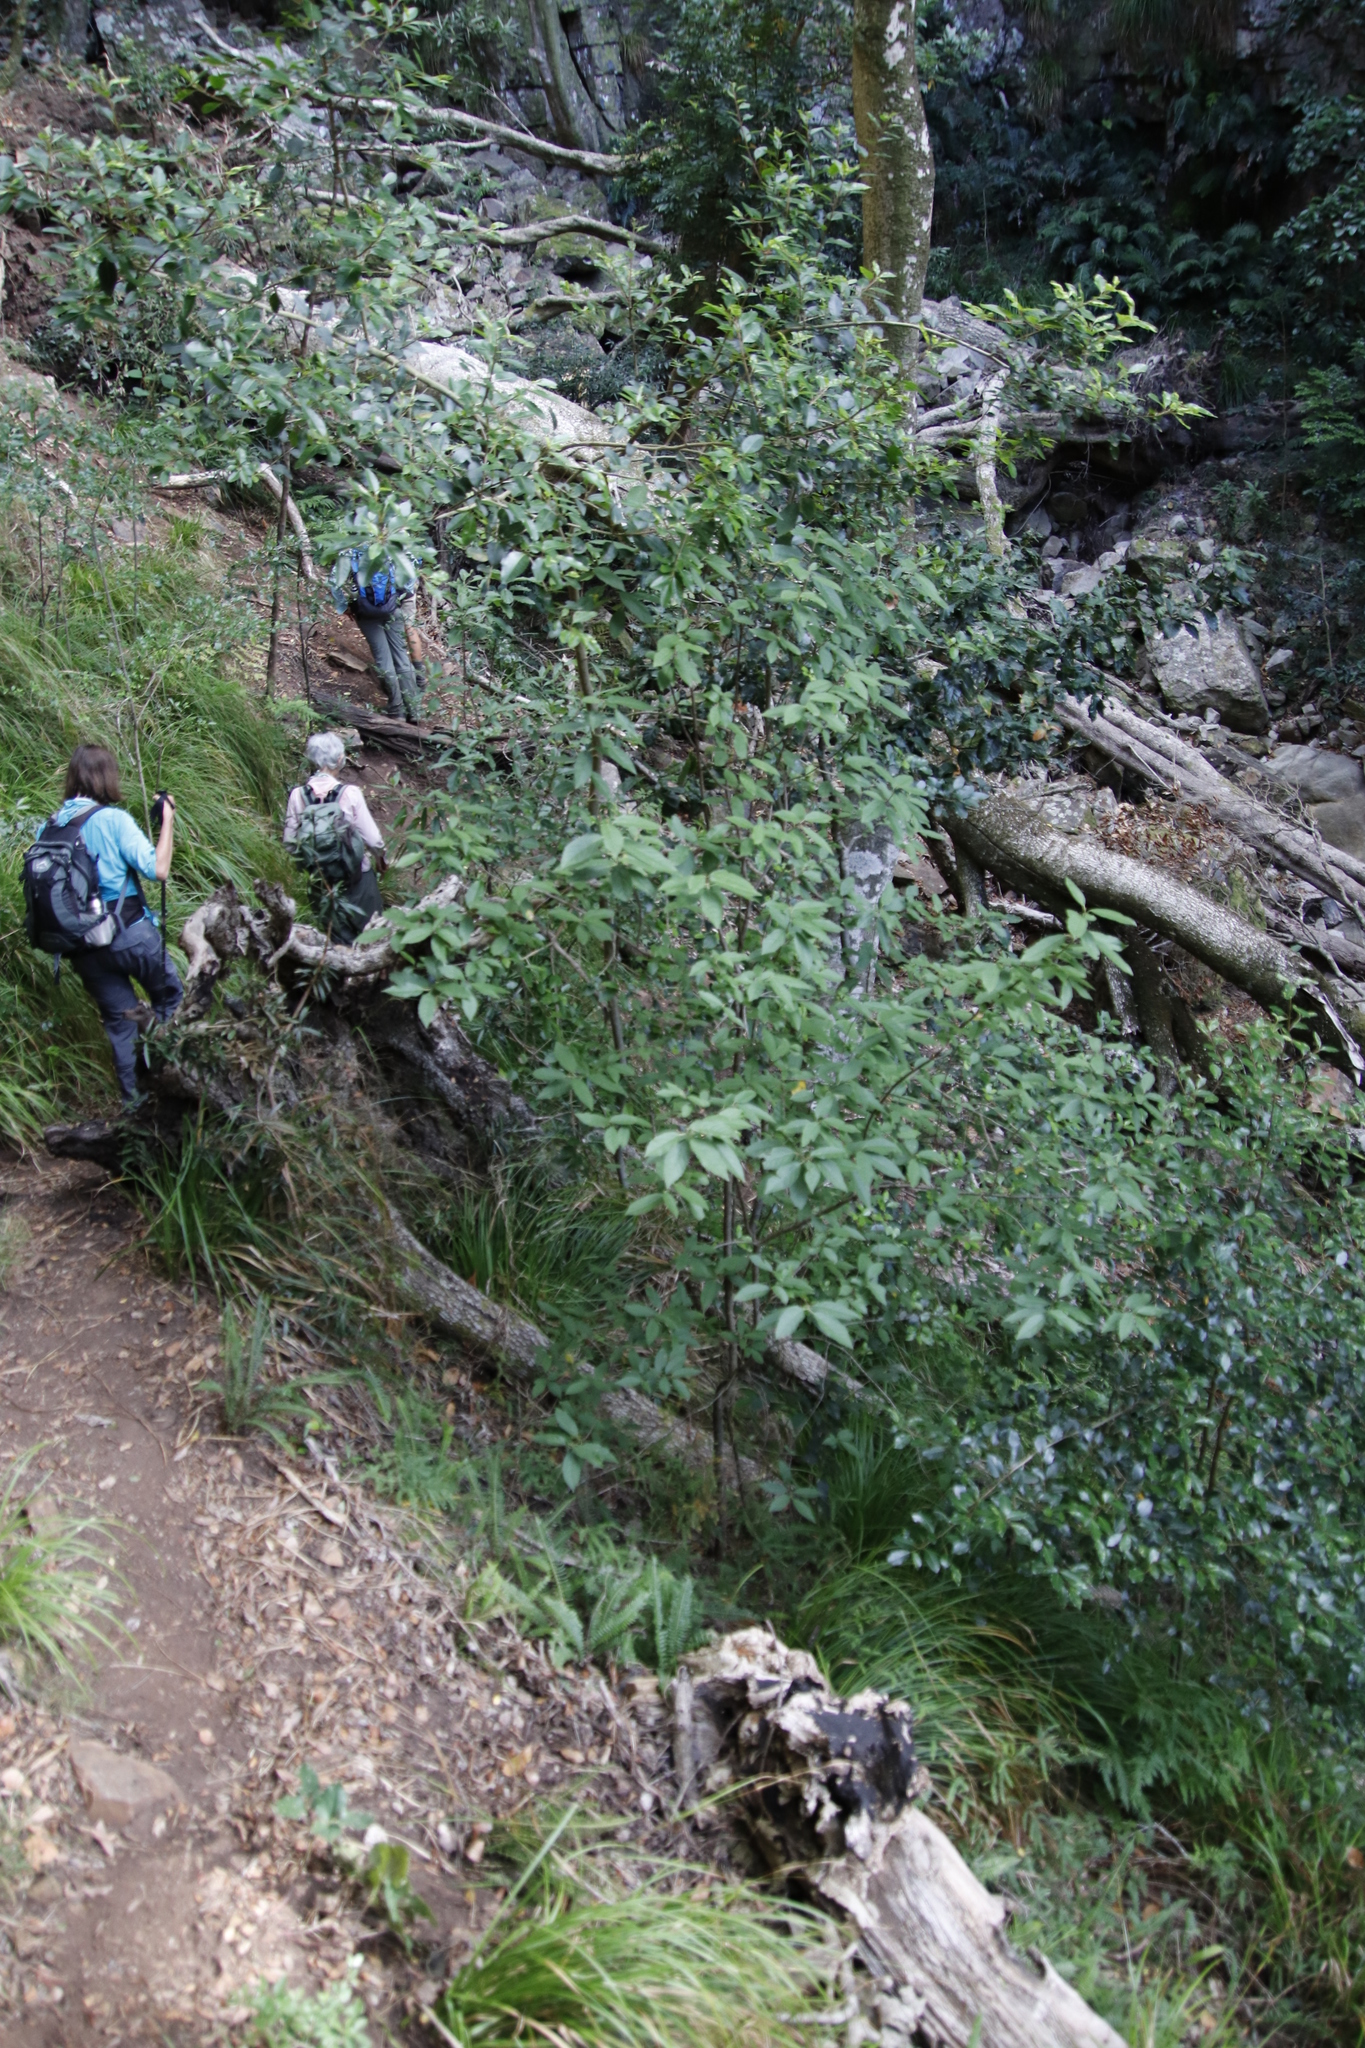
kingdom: Plantae
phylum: Tracheophyta
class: Magnoliopsida
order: Malpighiales
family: Achariaceae
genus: Kiggelaria
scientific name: Kiggelaria africana
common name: Wild peach
